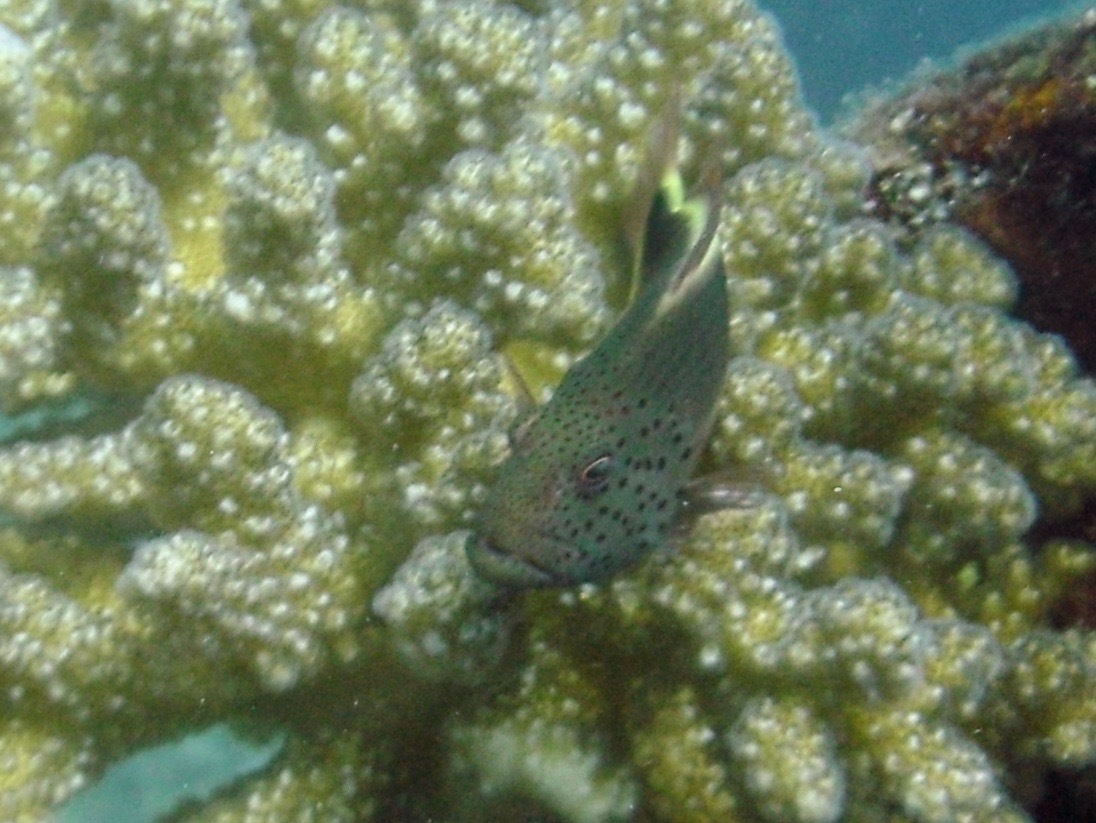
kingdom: Animalia
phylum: Chordata
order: Perciformes
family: Cirrhitidae
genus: Paracirrhites
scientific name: Paracirrhites forsteri
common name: Freckled hawkfish
